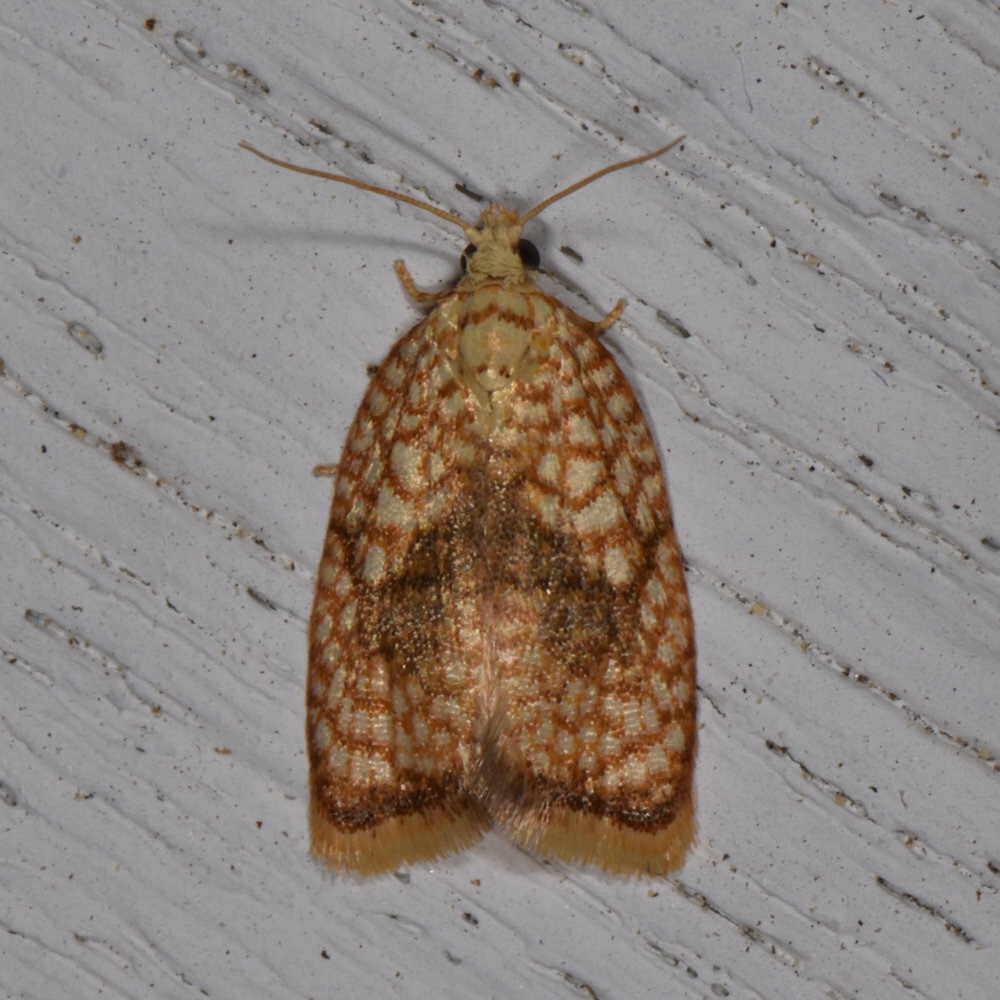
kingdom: Animalia
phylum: Arthropoda
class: Insecta
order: Lepidoptera
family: Tortricidae
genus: Acleris
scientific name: Acleris forsskaleana
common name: Maple button
